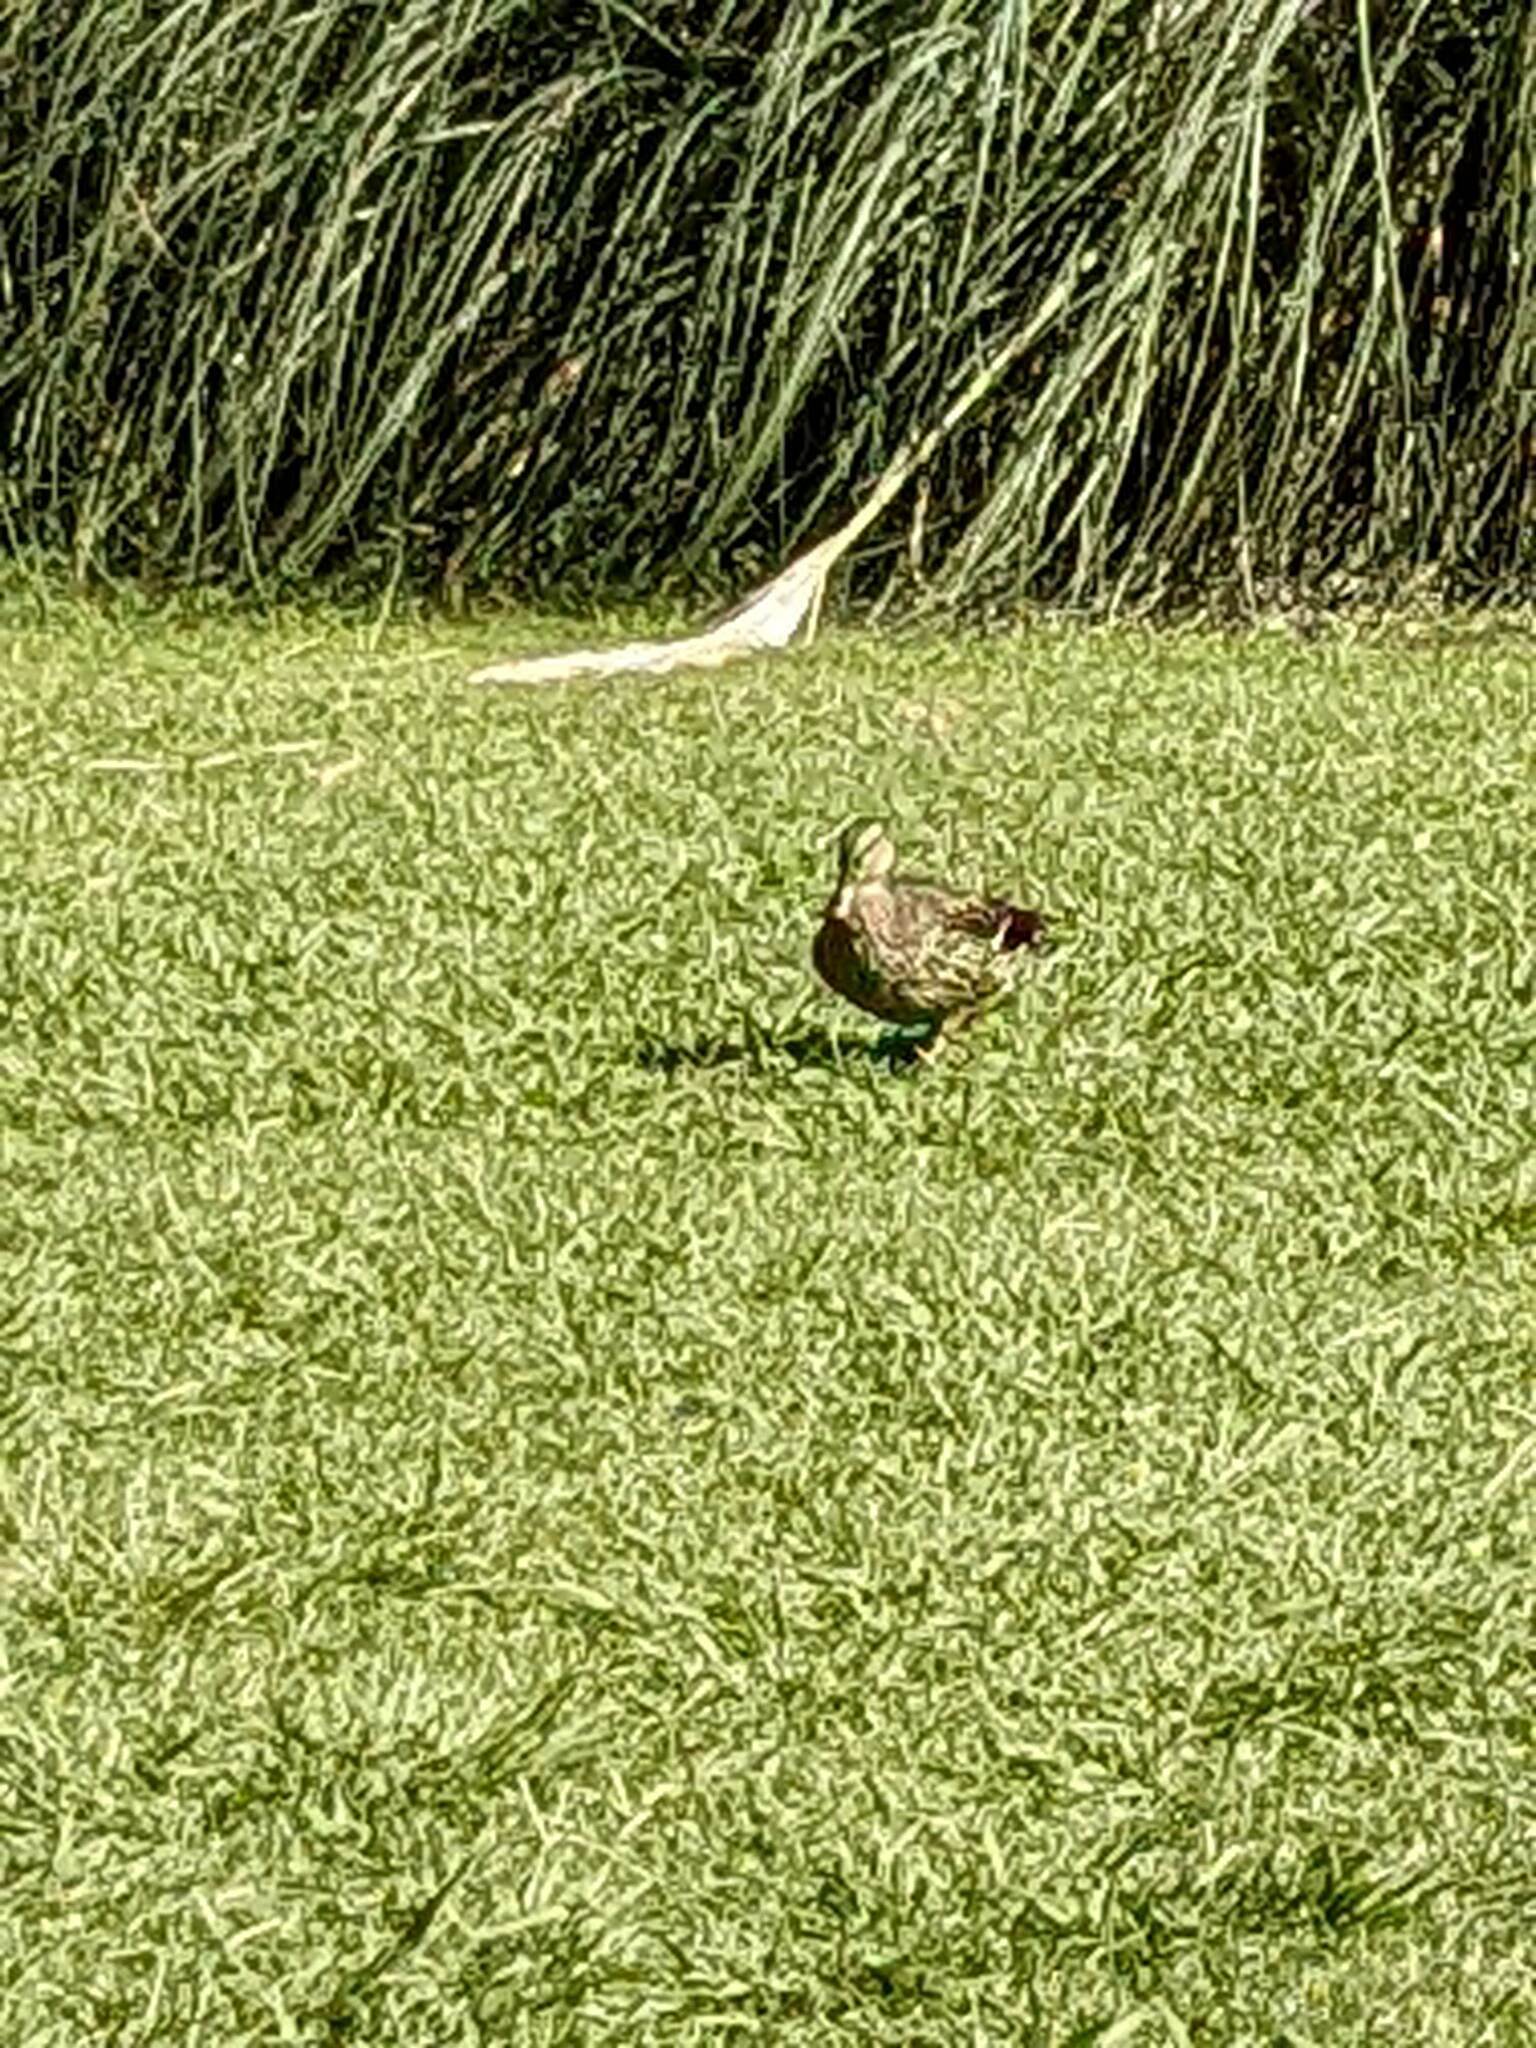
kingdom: Animalia
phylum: Chordata
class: Aves
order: Anseriformes
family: Anatidae
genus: Anas
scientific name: Anas platyrhynchos
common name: Mallard
